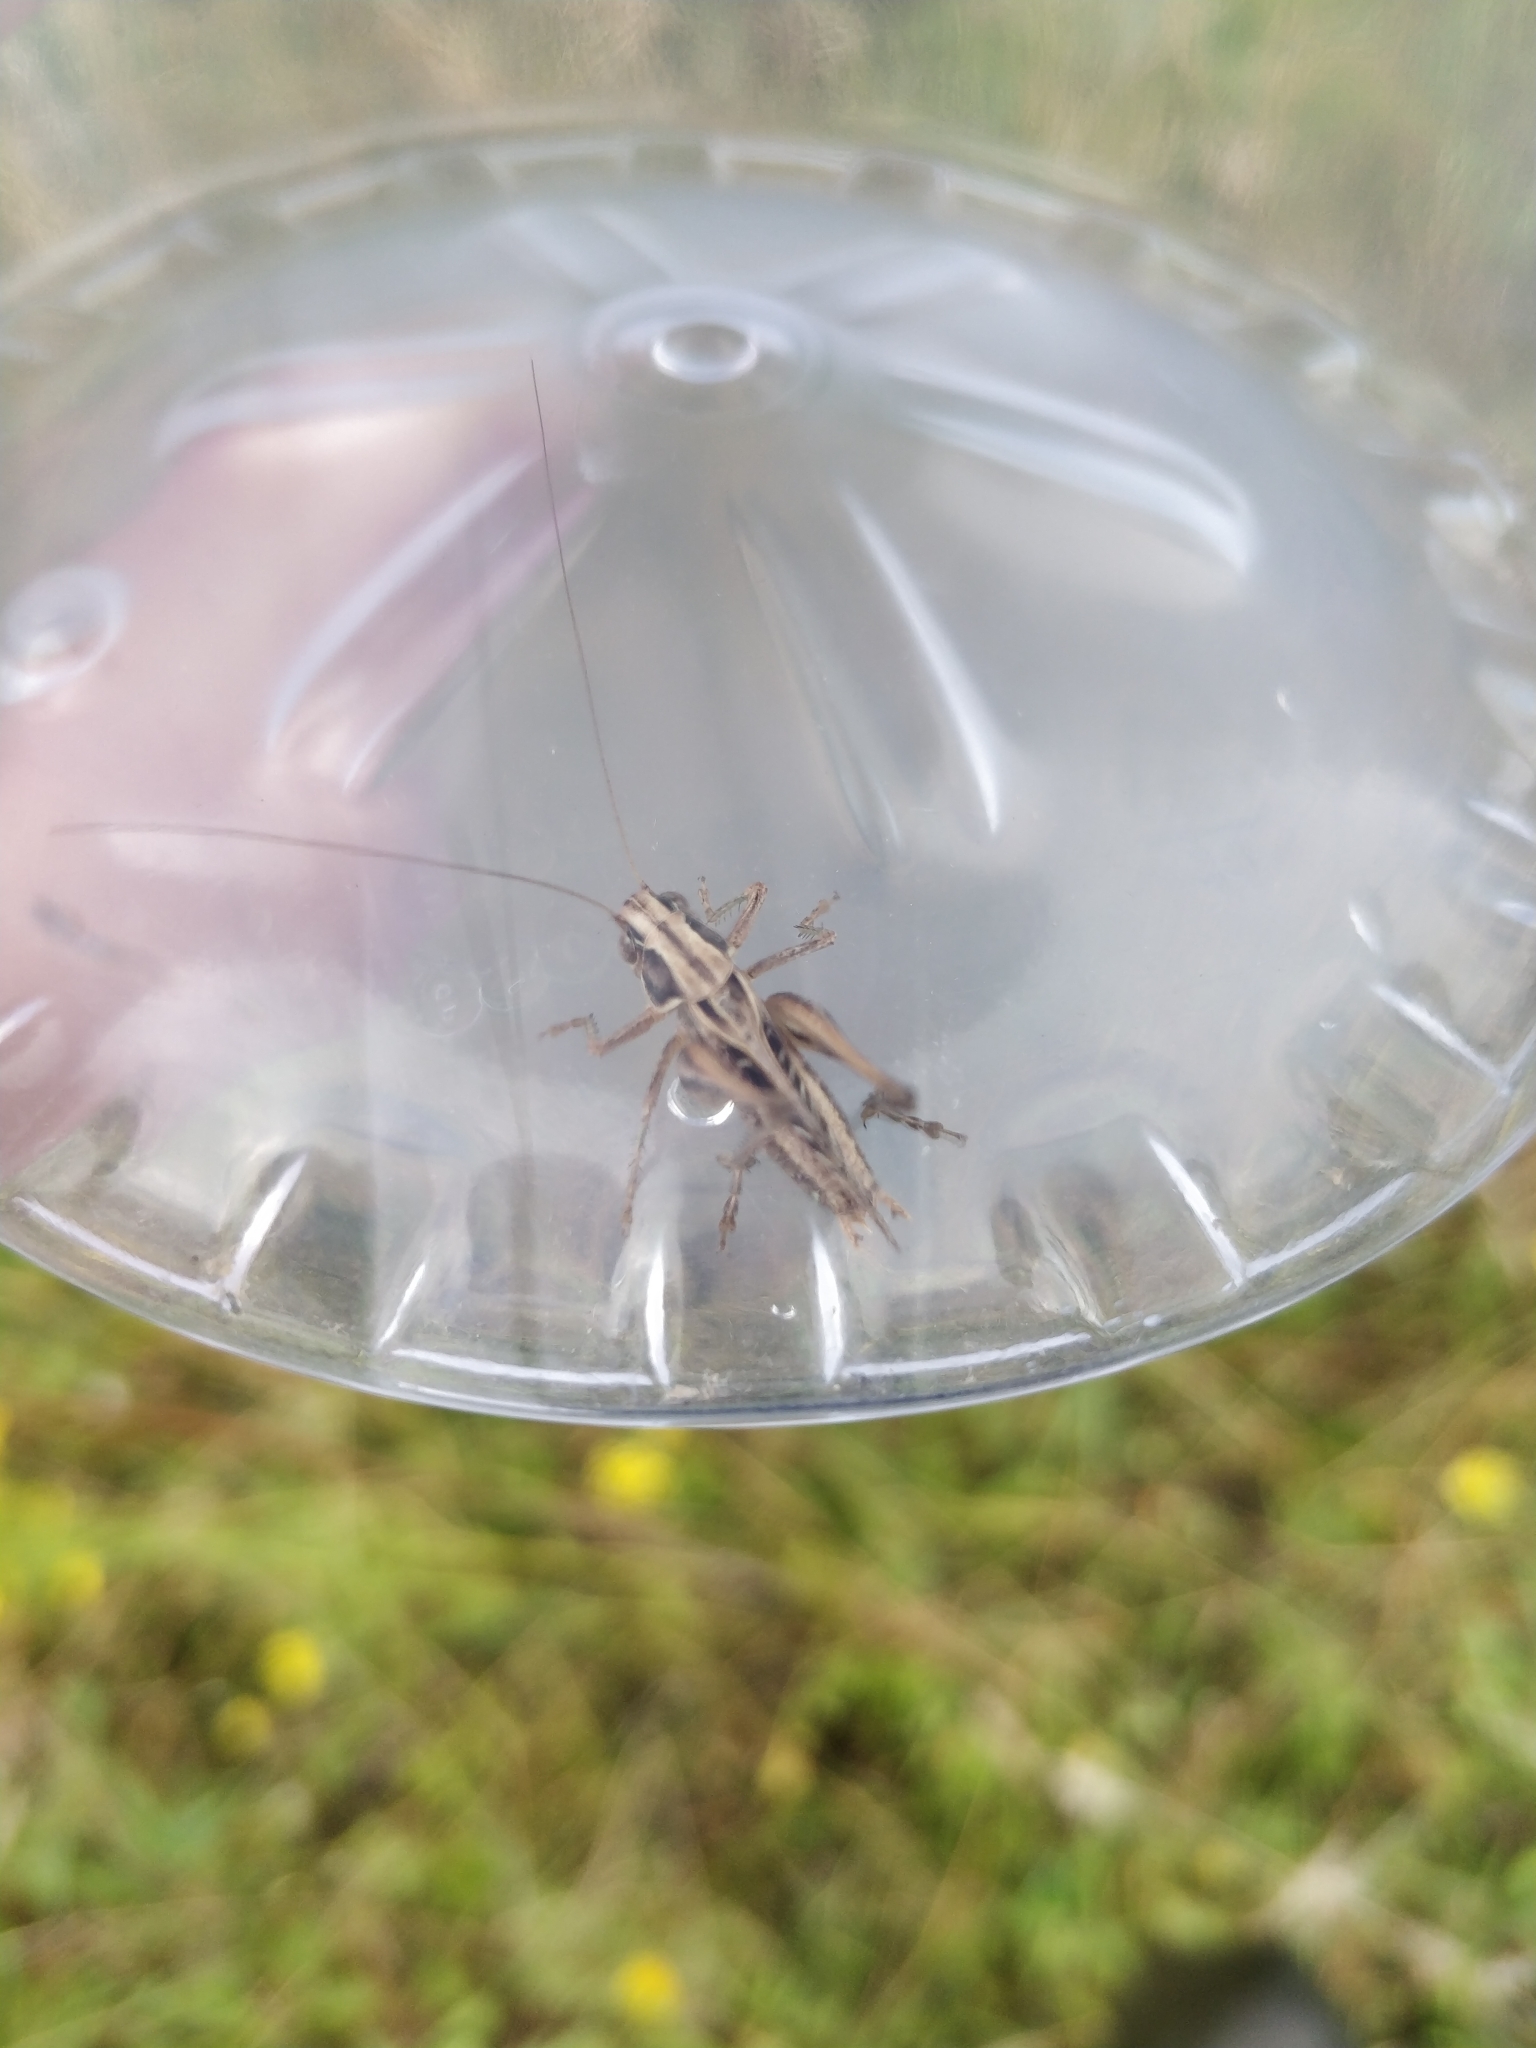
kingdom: Animalia
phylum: Arthropoda
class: Insecta
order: Orthoptera
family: Tettigoniidae
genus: Tessellana
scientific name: Tessellana tessellata
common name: Grasshopper
